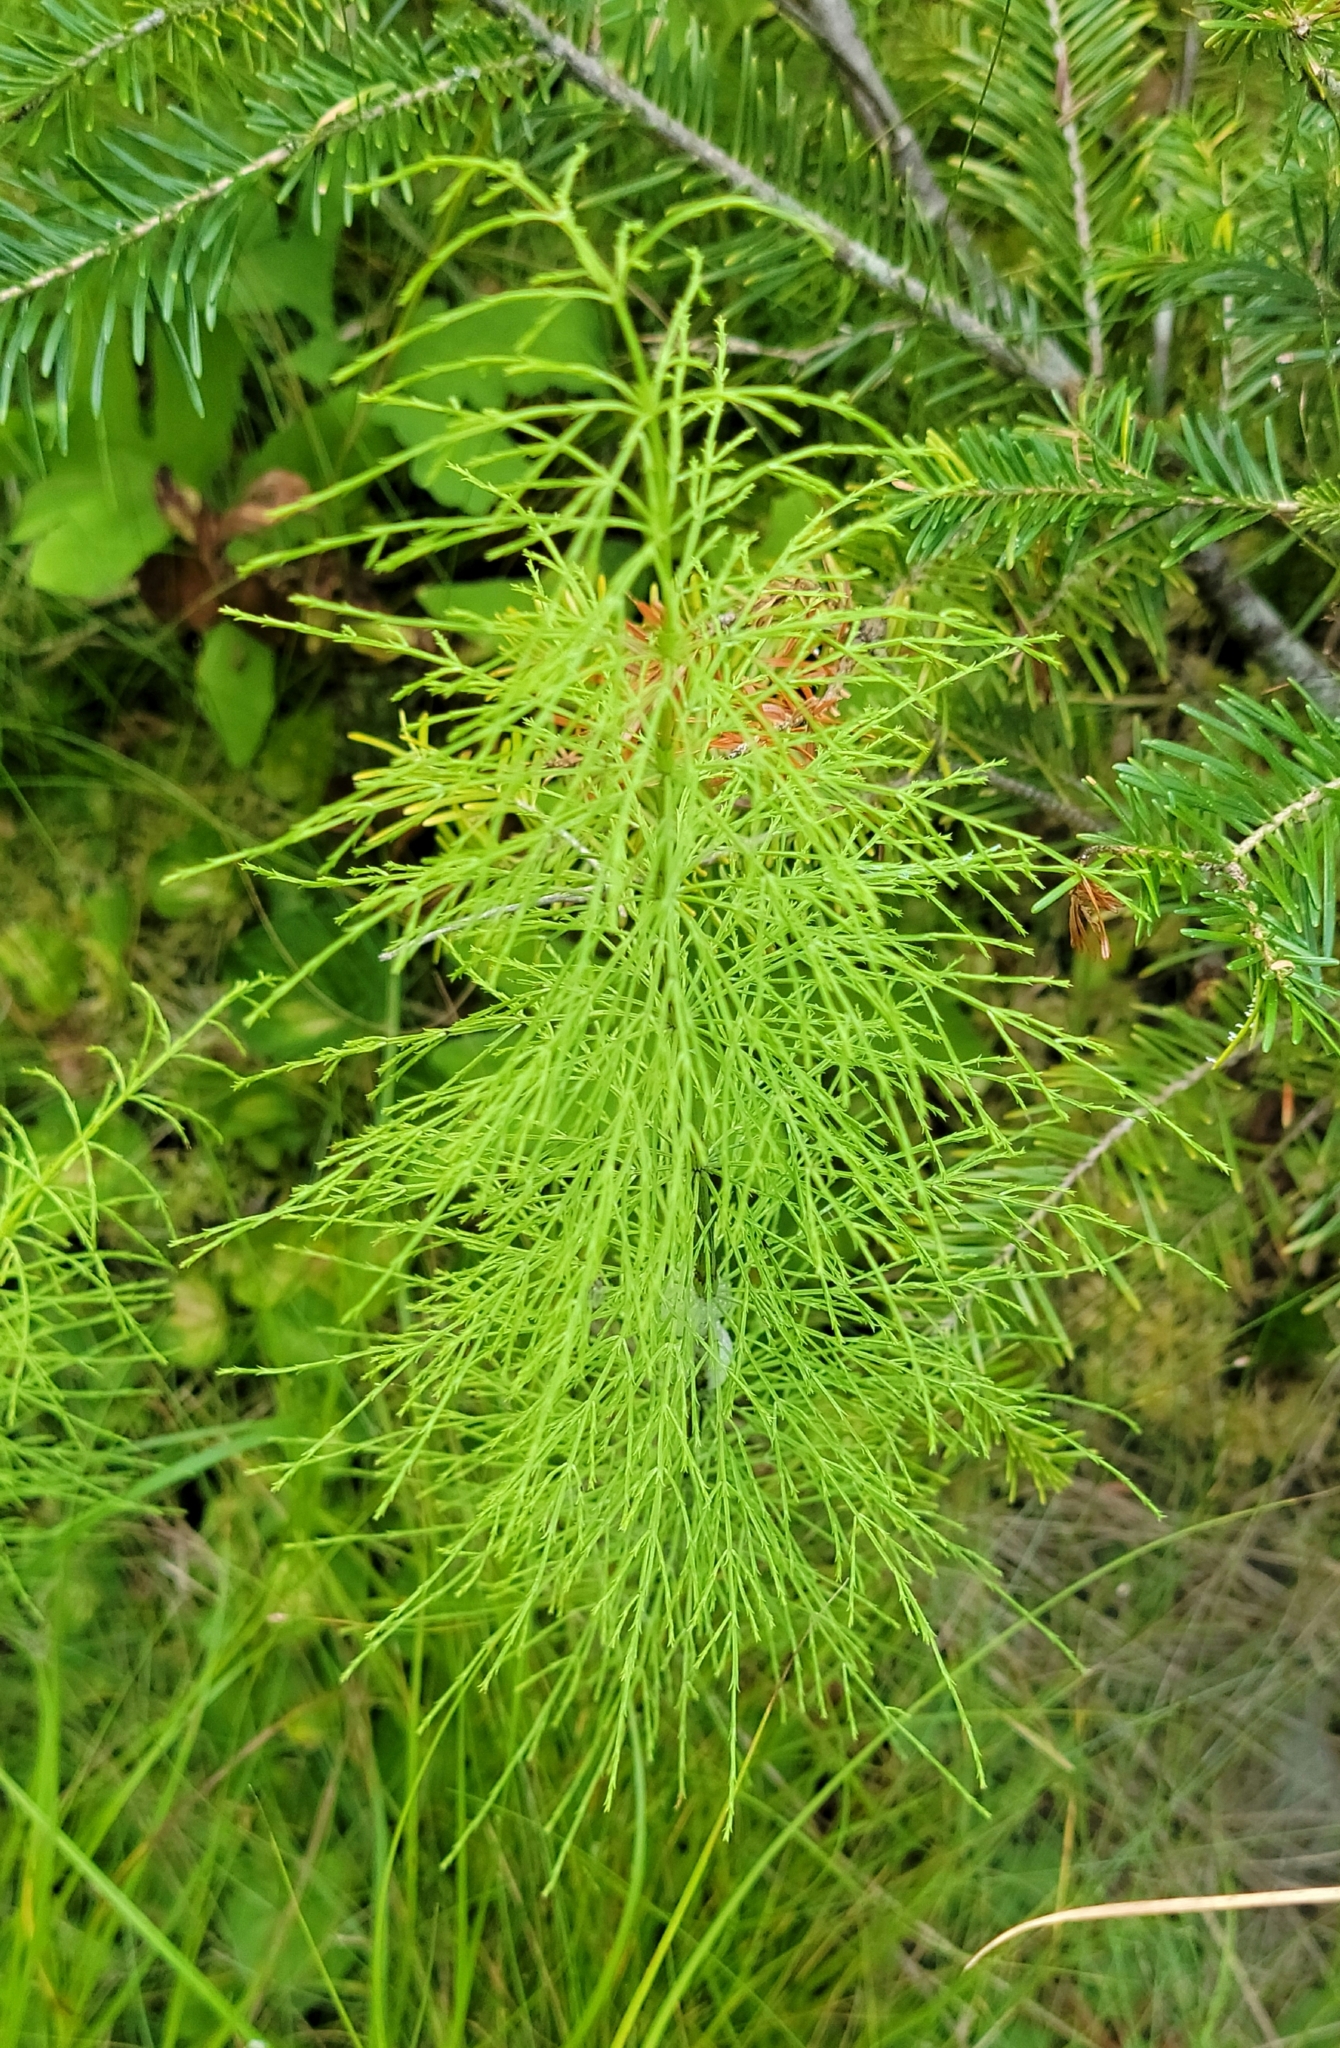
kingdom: Plantae
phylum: Tracheophyta
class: Polypodiopsida
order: Equisetales
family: Equisetaceae
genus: Equisetum
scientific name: Equisetum sylvaticum
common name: Wood horsetail
